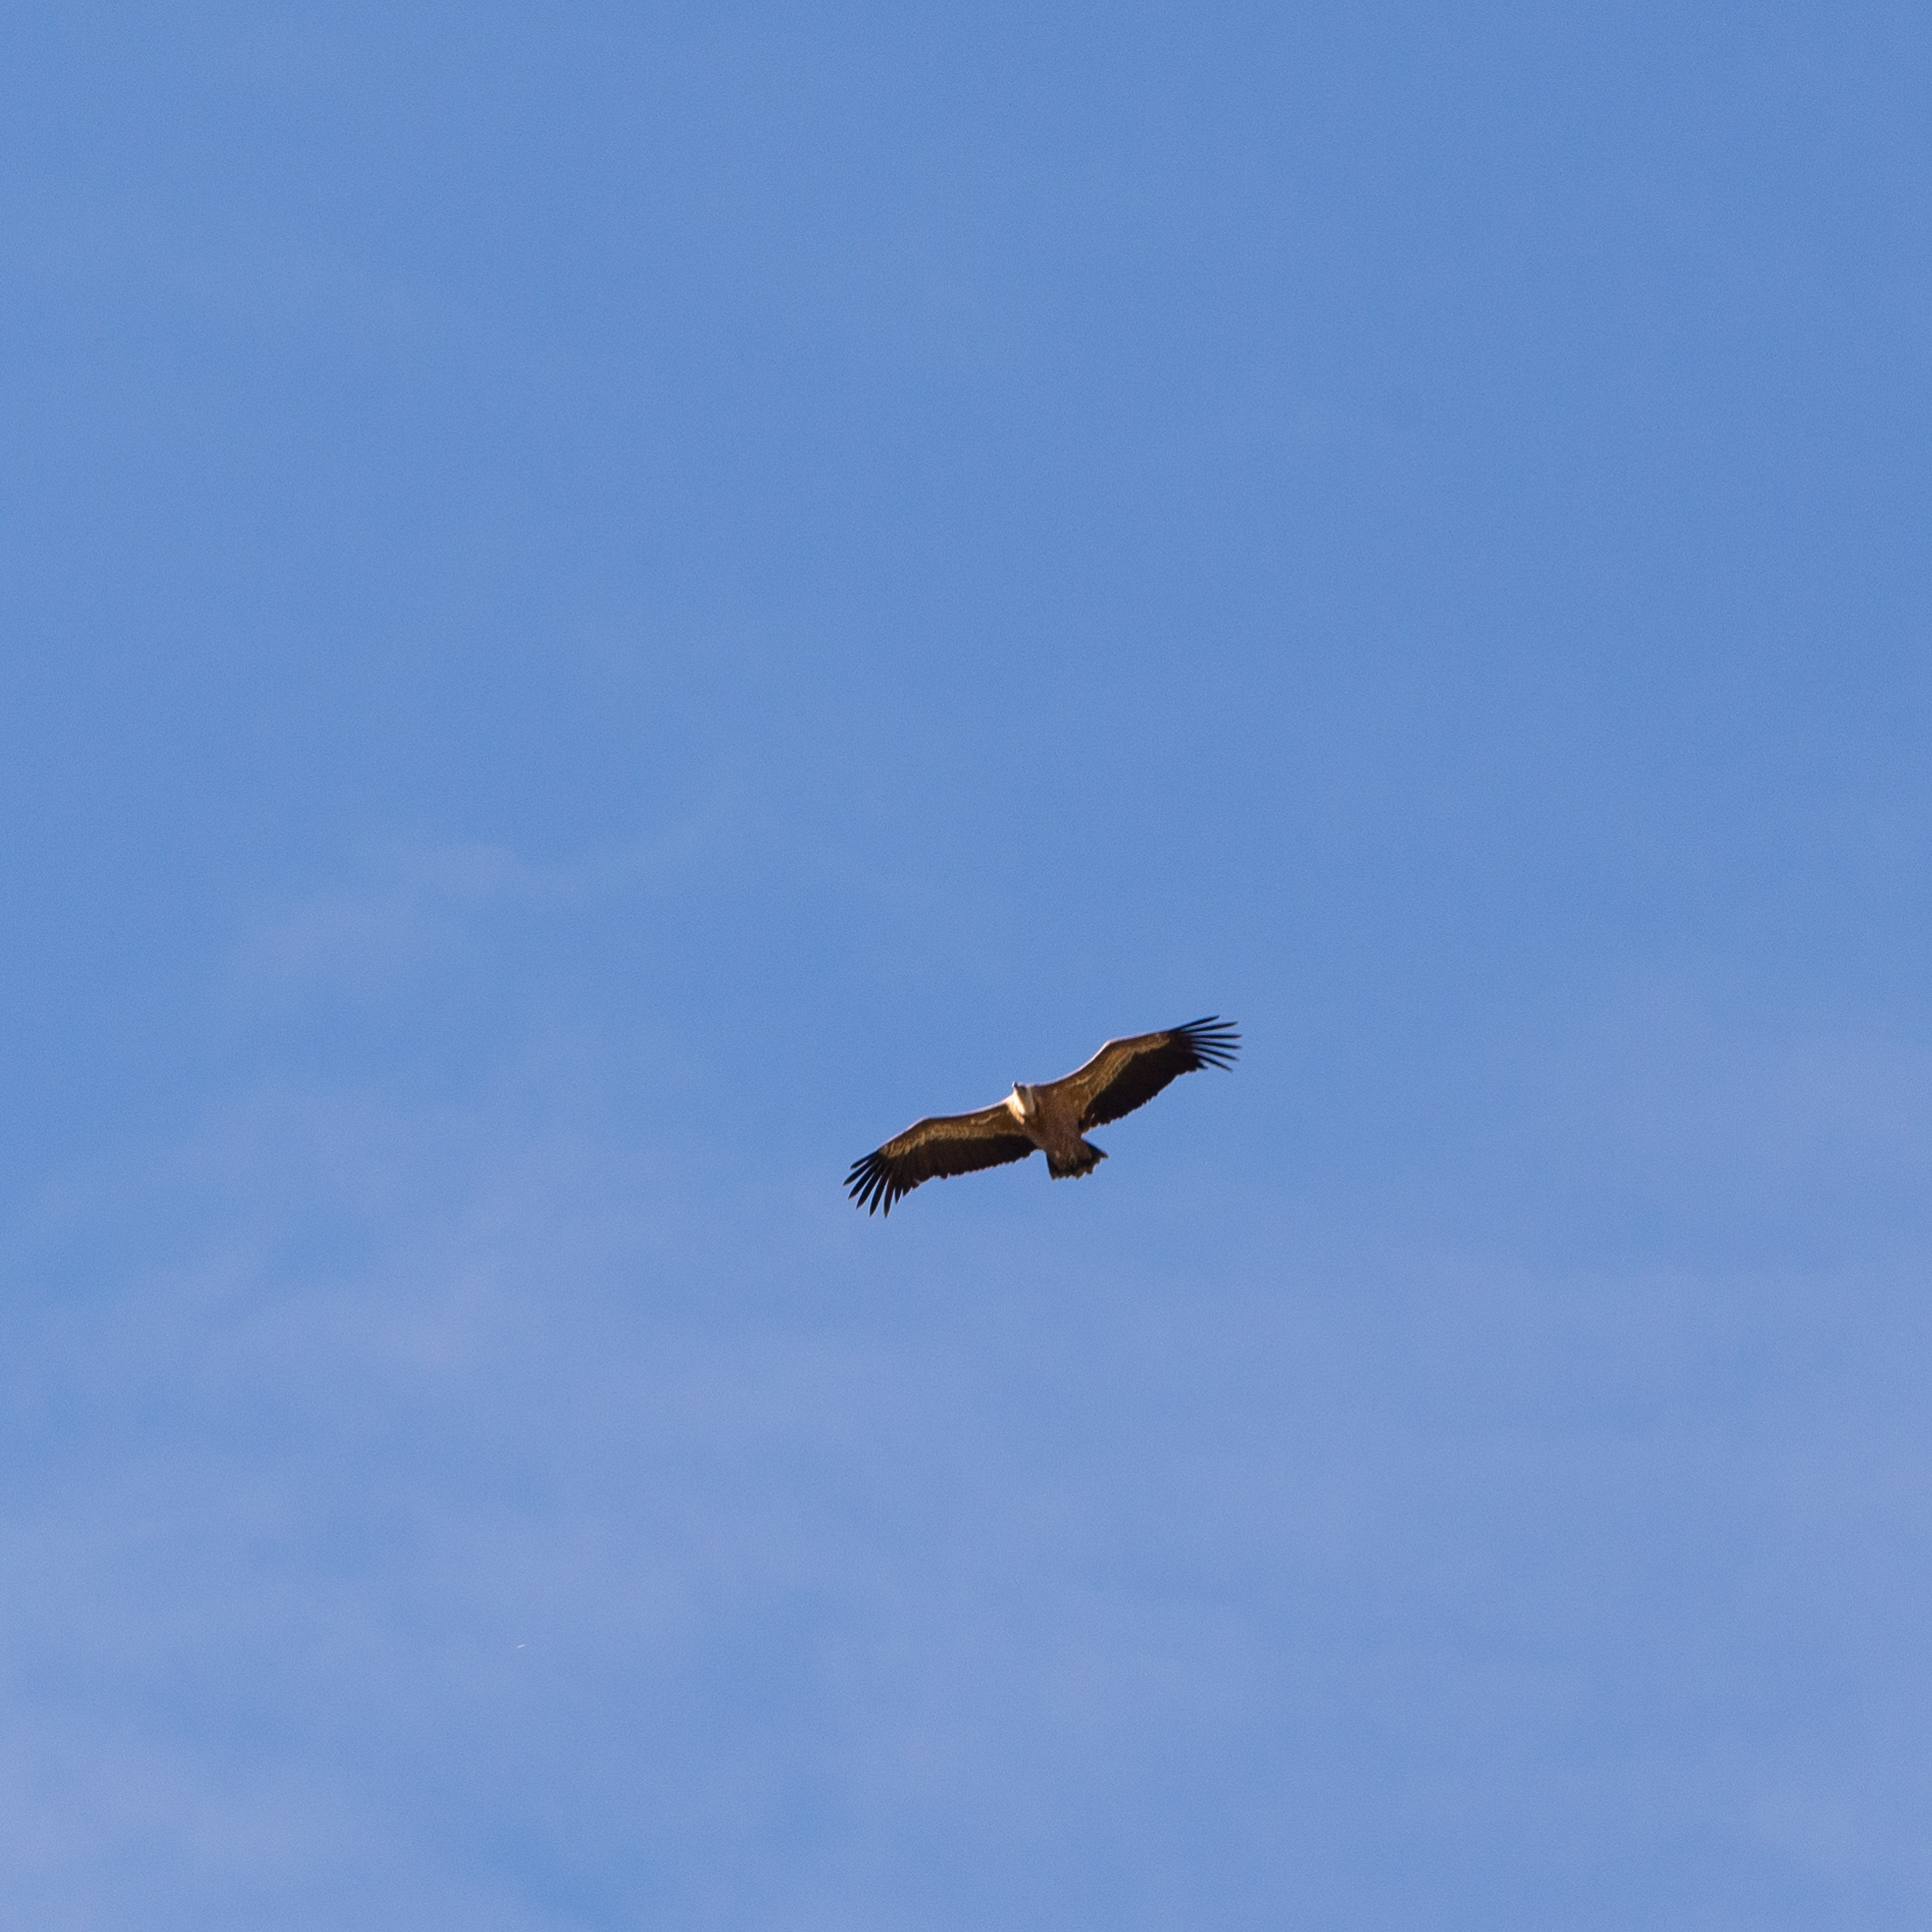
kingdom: Animalia
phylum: Chordata
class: Aves
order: Accipitriformes
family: Accipitridae
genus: Gyps
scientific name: Gyps fulvus
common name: Griffon vulture
